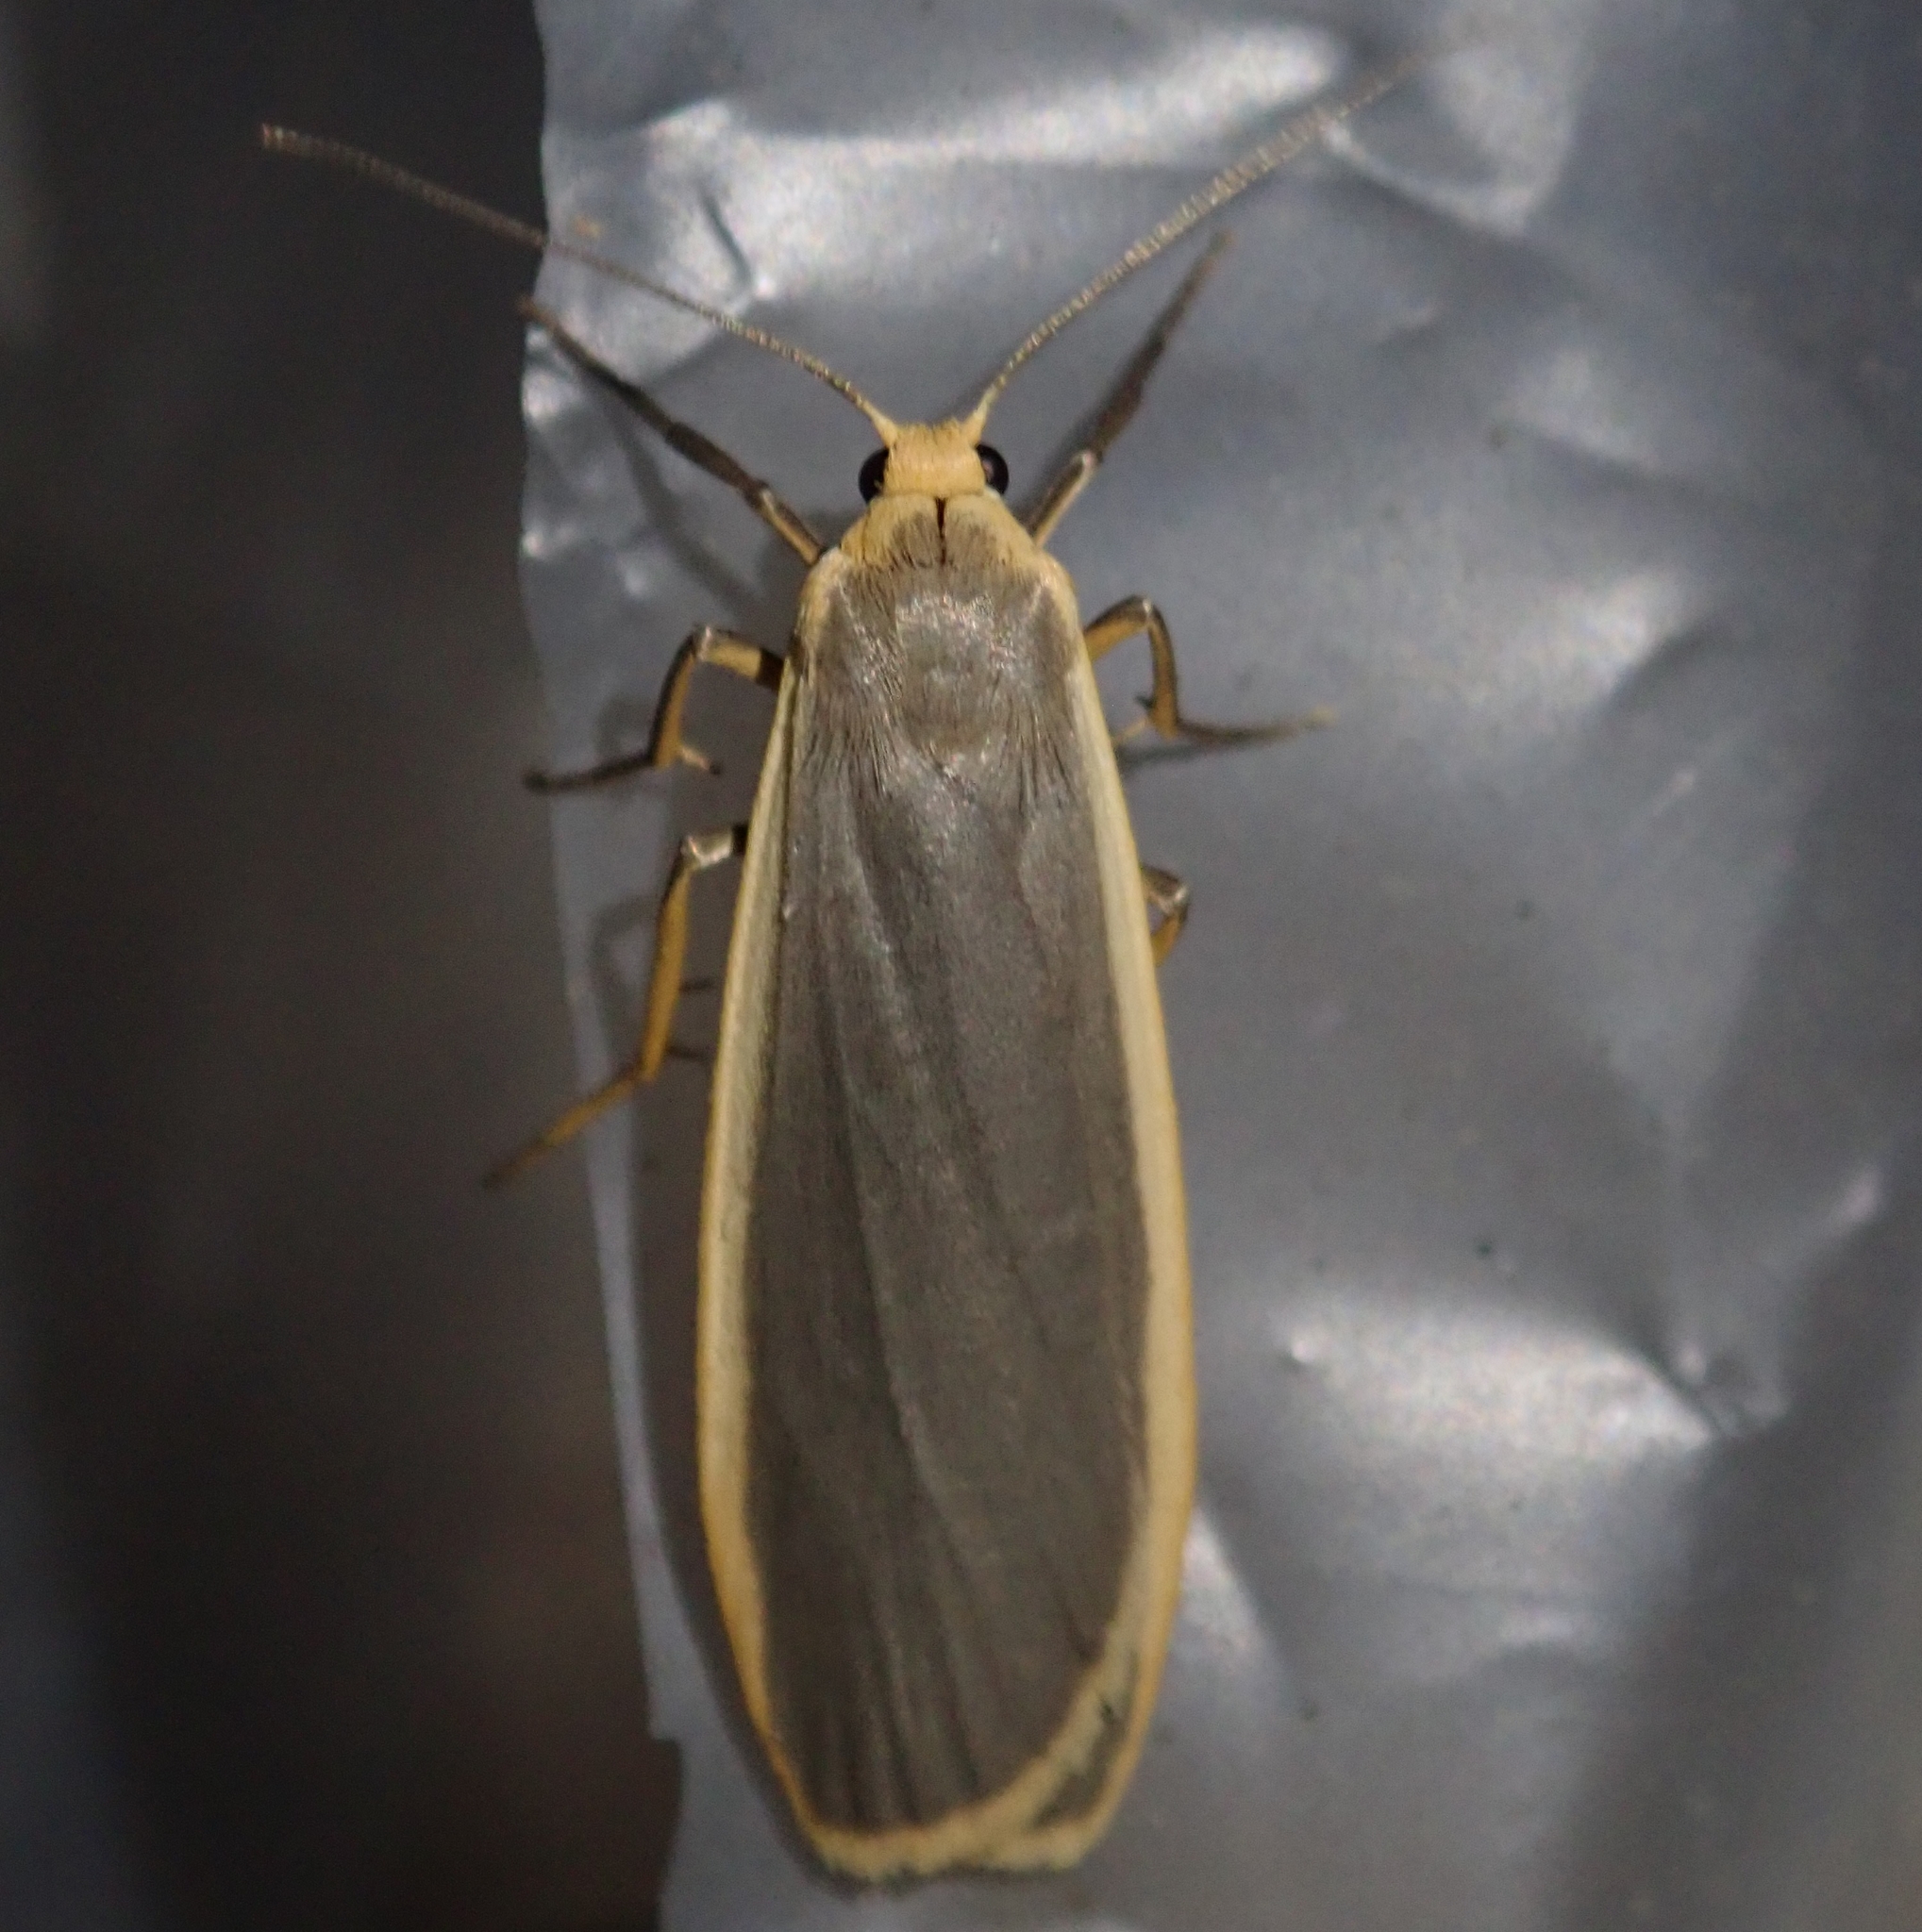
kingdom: Animalia
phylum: Arthropoda
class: Insecta
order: Lepidoptera
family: Erebidae
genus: Nyea
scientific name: Nyea lurideola
